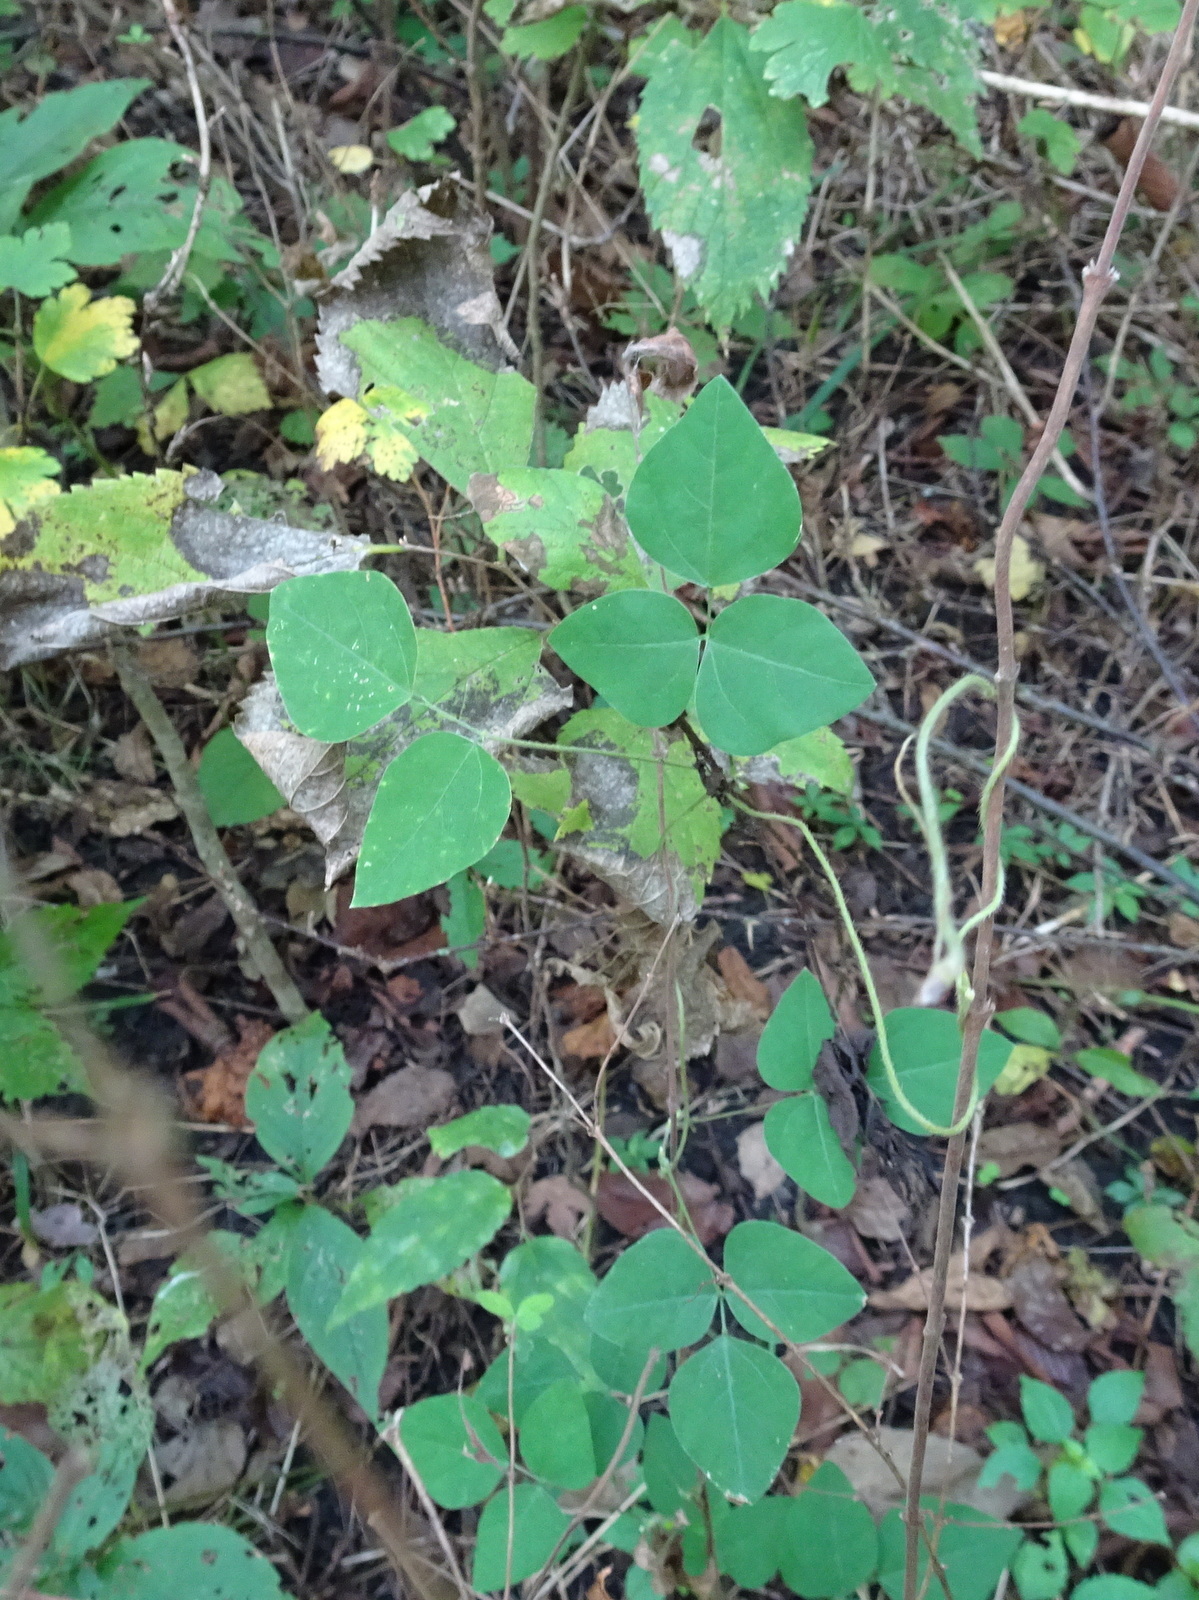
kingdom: Plantae
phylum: Tracheophyta
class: Magnoliopsida
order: Fabales
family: Fabaceae
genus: Amphicarpaea
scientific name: Amphicarpaea bracteata
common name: American hog peanut
